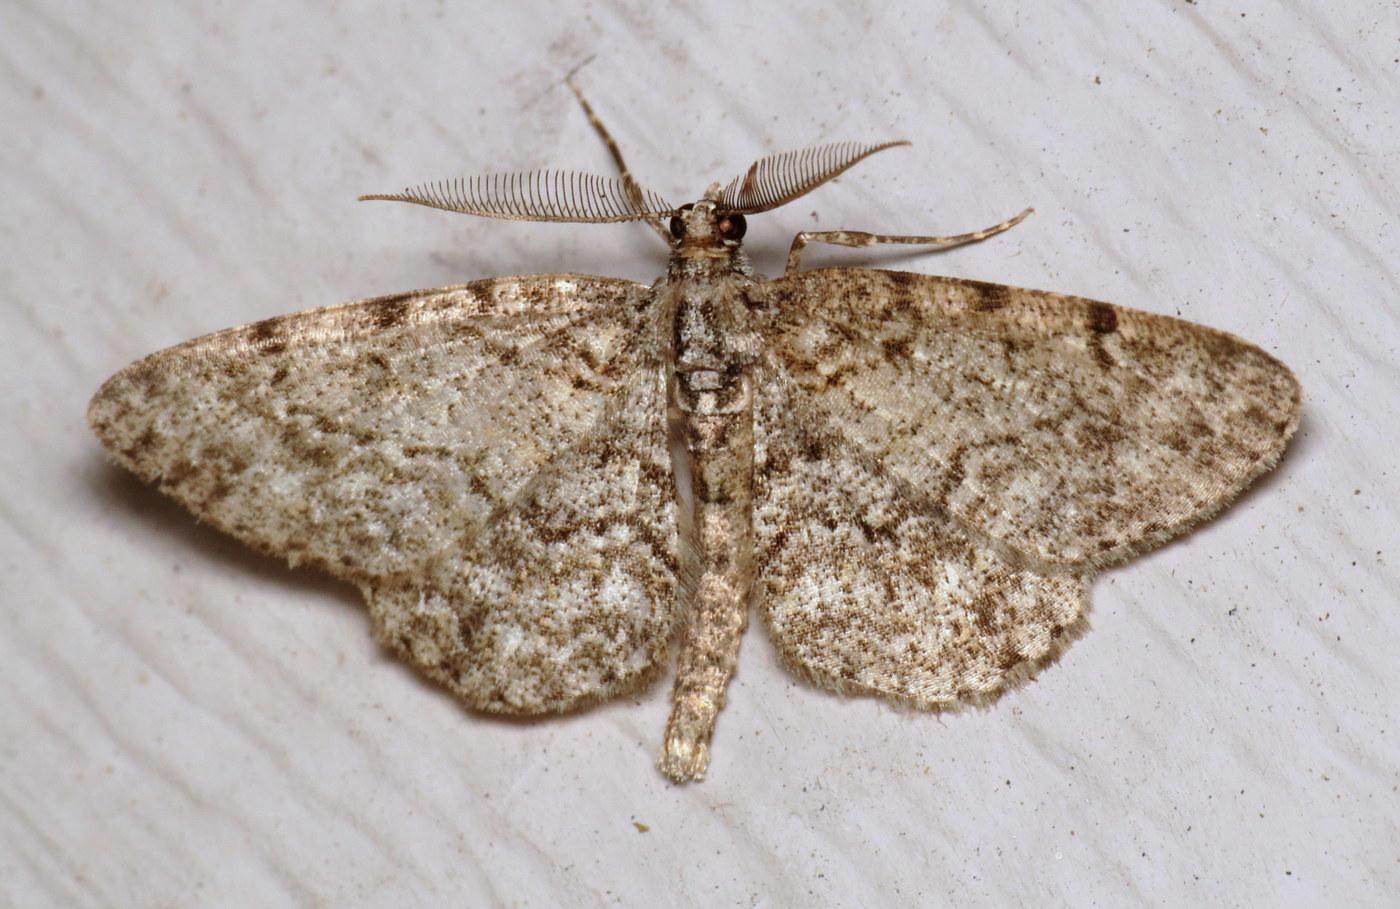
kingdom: Animalia
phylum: Arthropoda
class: Insecta
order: Lepidoptera
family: Geometridae
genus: Protoboarmia
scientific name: Protoboarmia porcelaria
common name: Porcelain gray
